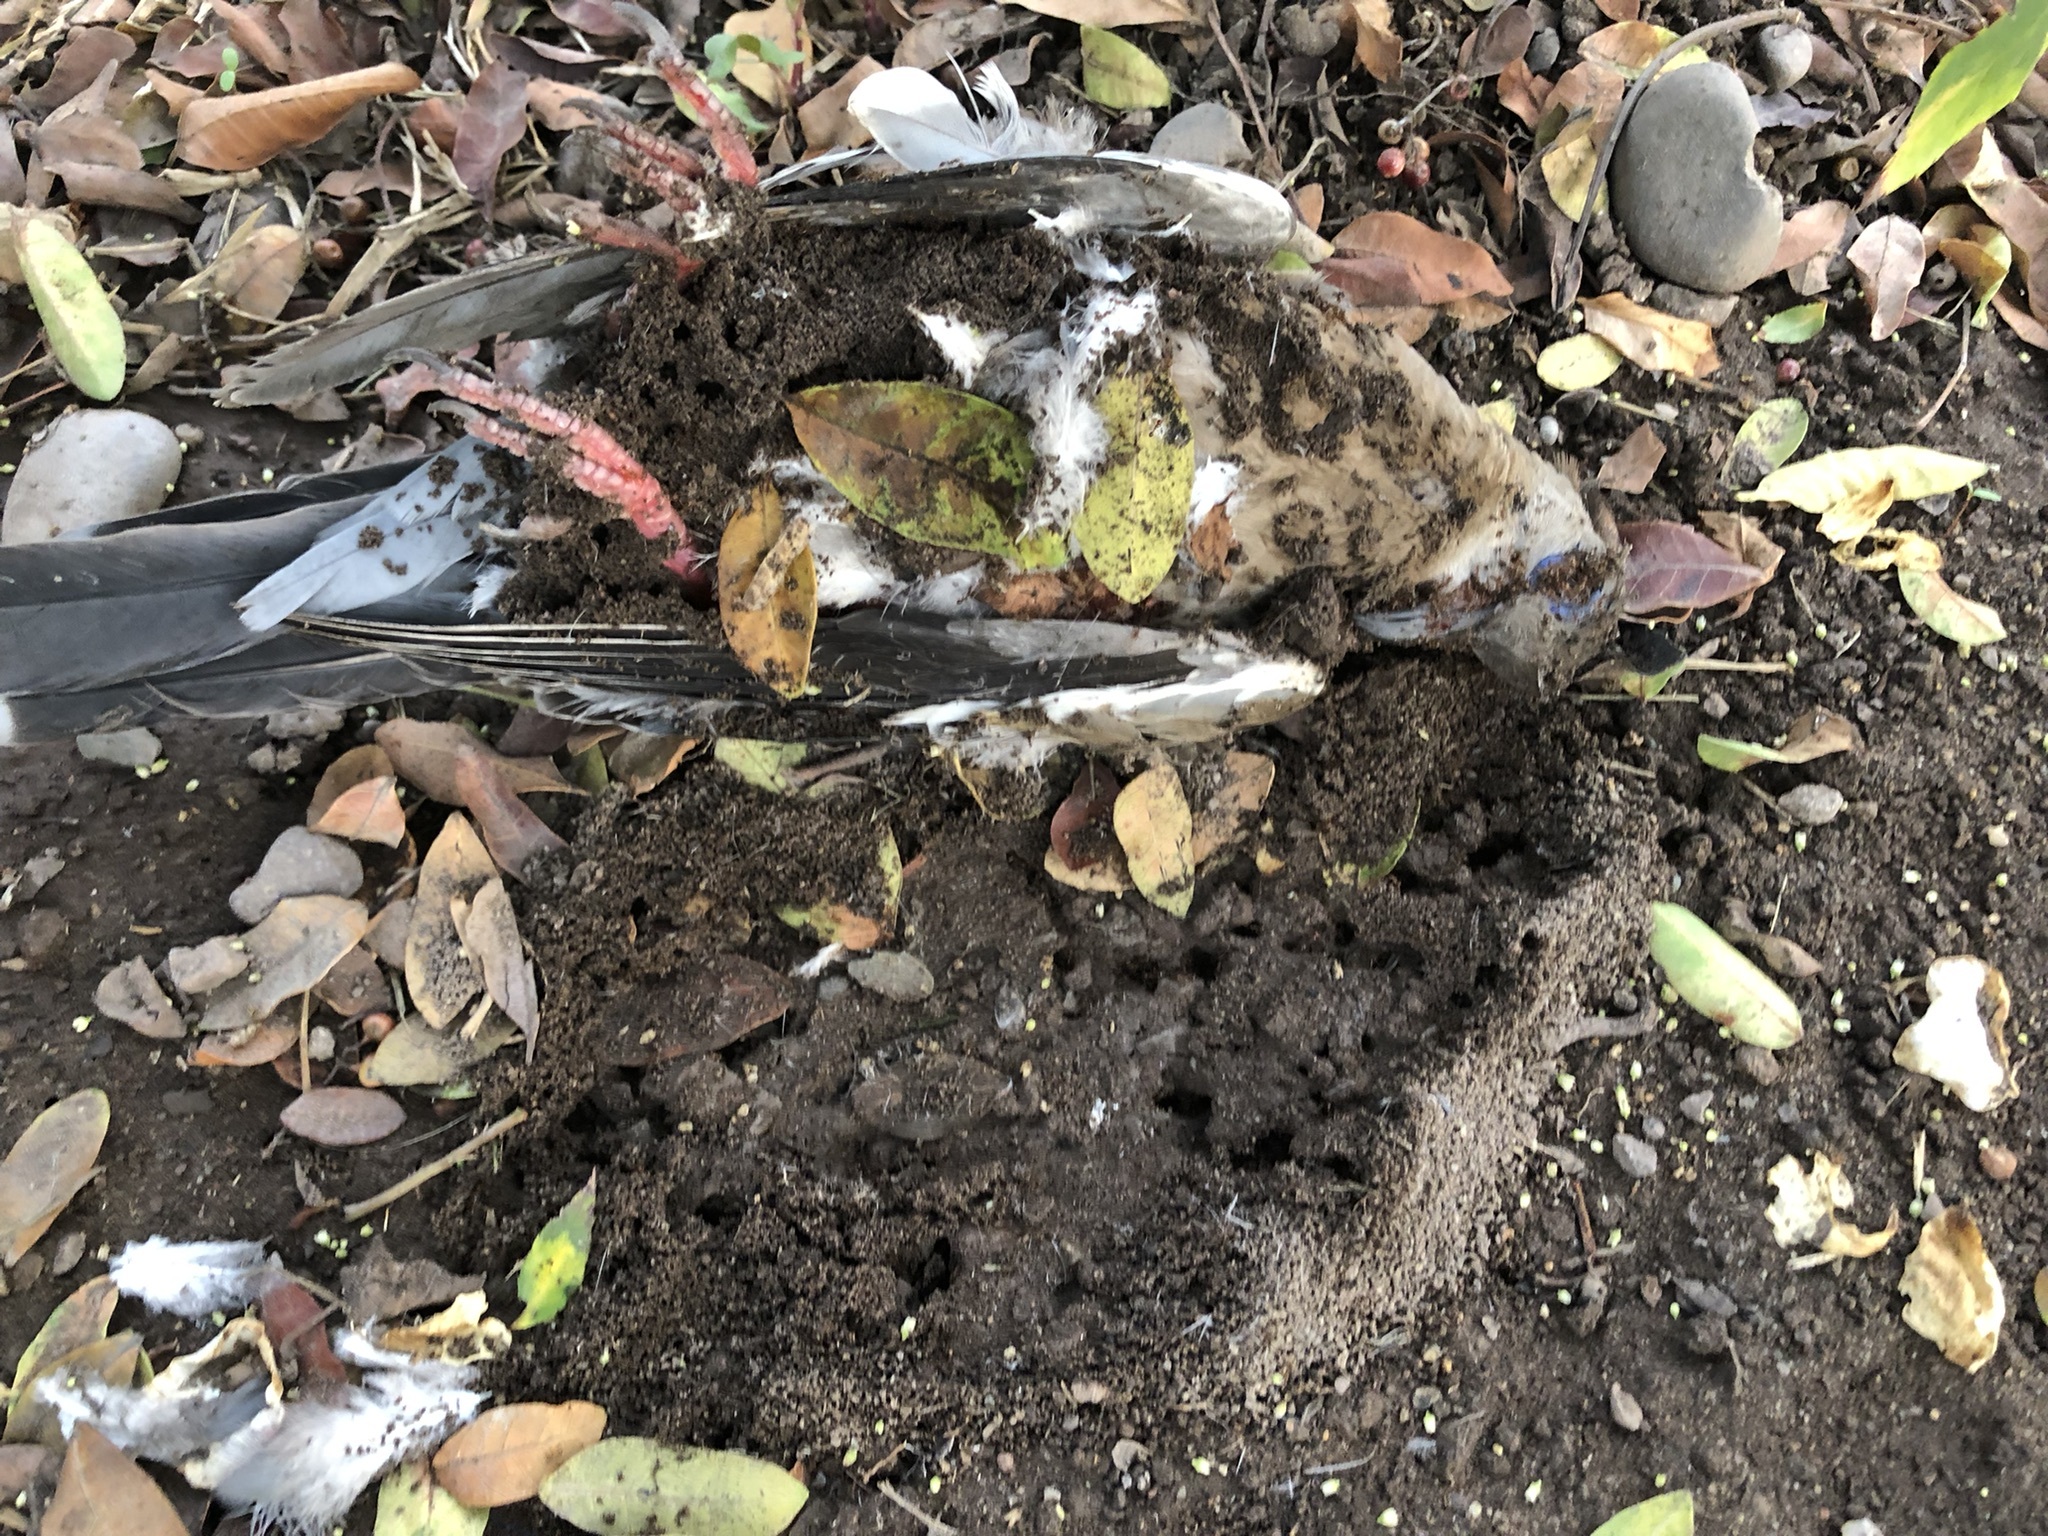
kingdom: Animalia
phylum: Chordata
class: Aves
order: Columbiformes
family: Columbidae
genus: Zenaida
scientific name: Zenaida meloda
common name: West peruvian dove
